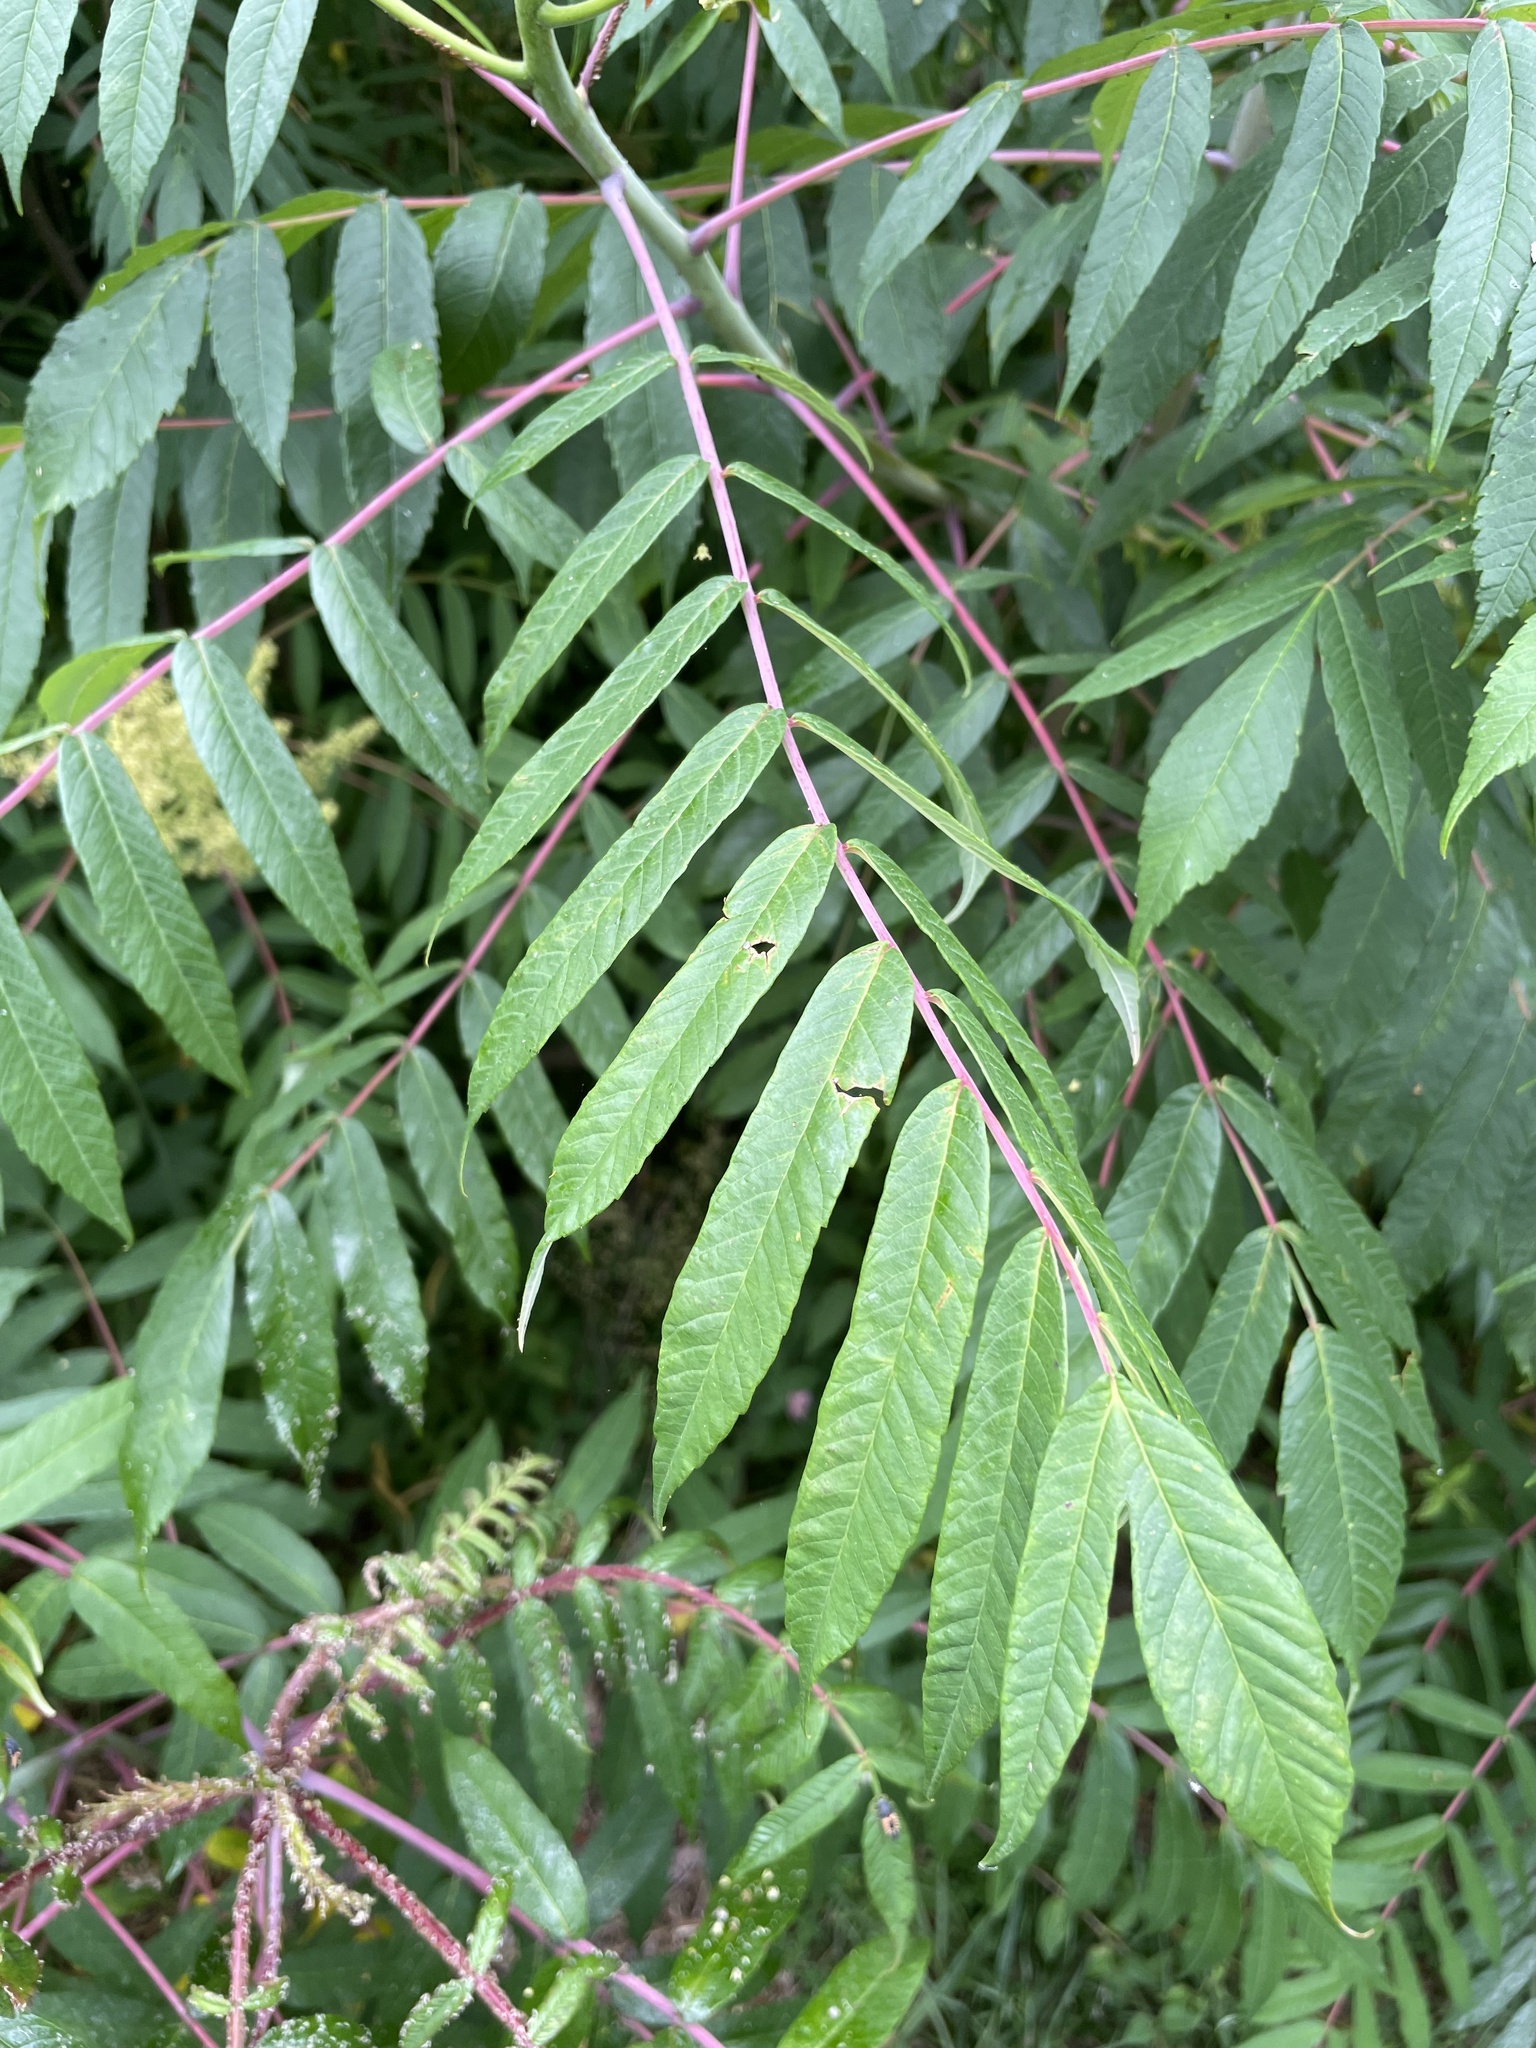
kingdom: Plantae
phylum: Tracheophyta
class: Magnoliopsida
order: Sapindales
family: Anacardiaceae
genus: Rhus
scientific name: Rhus glabra
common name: Scarlet sumac
